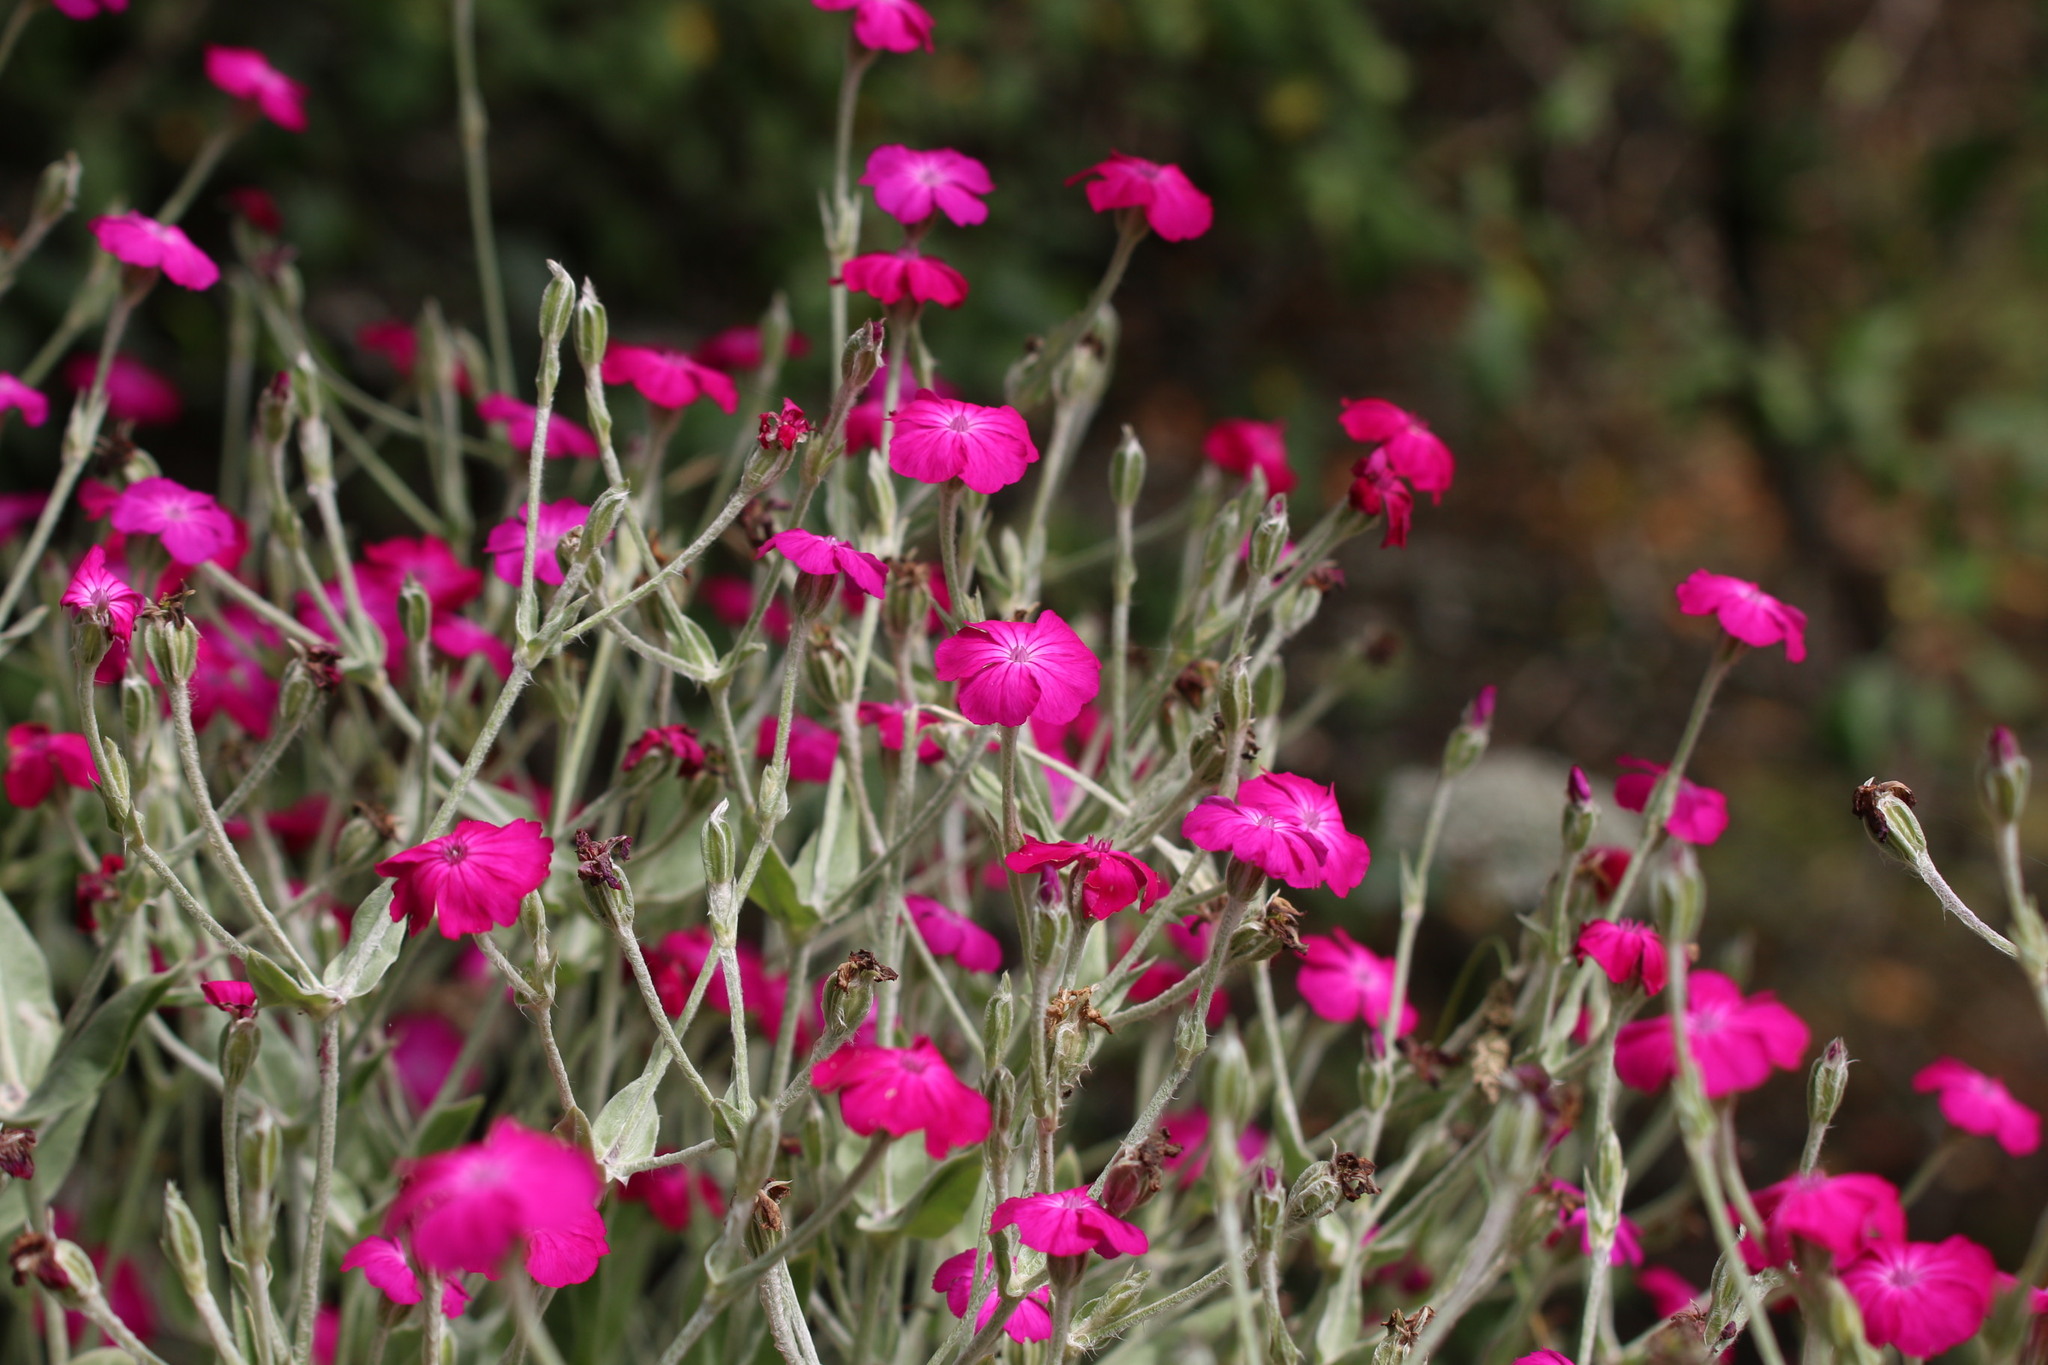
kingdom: Plantae
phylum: Tracheophyta
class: Magnoliopsida
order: Caryophyllales
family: Caryophyllaceae
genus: Silene
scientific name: Silene coronaria
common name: Rose campion
